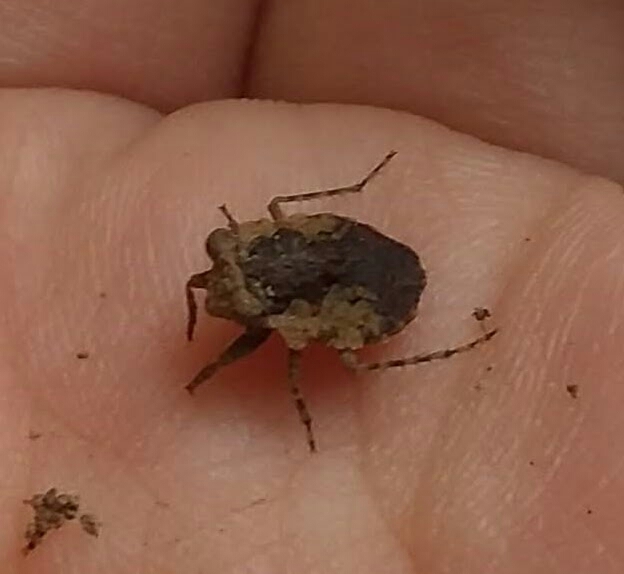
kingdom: Animalia
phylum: Arthropoda
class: Insecta
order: Hemiptera
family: Gelastocoridae
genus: Gelastocoris
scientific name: Gelastocoris oculatus
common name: Toad bug
